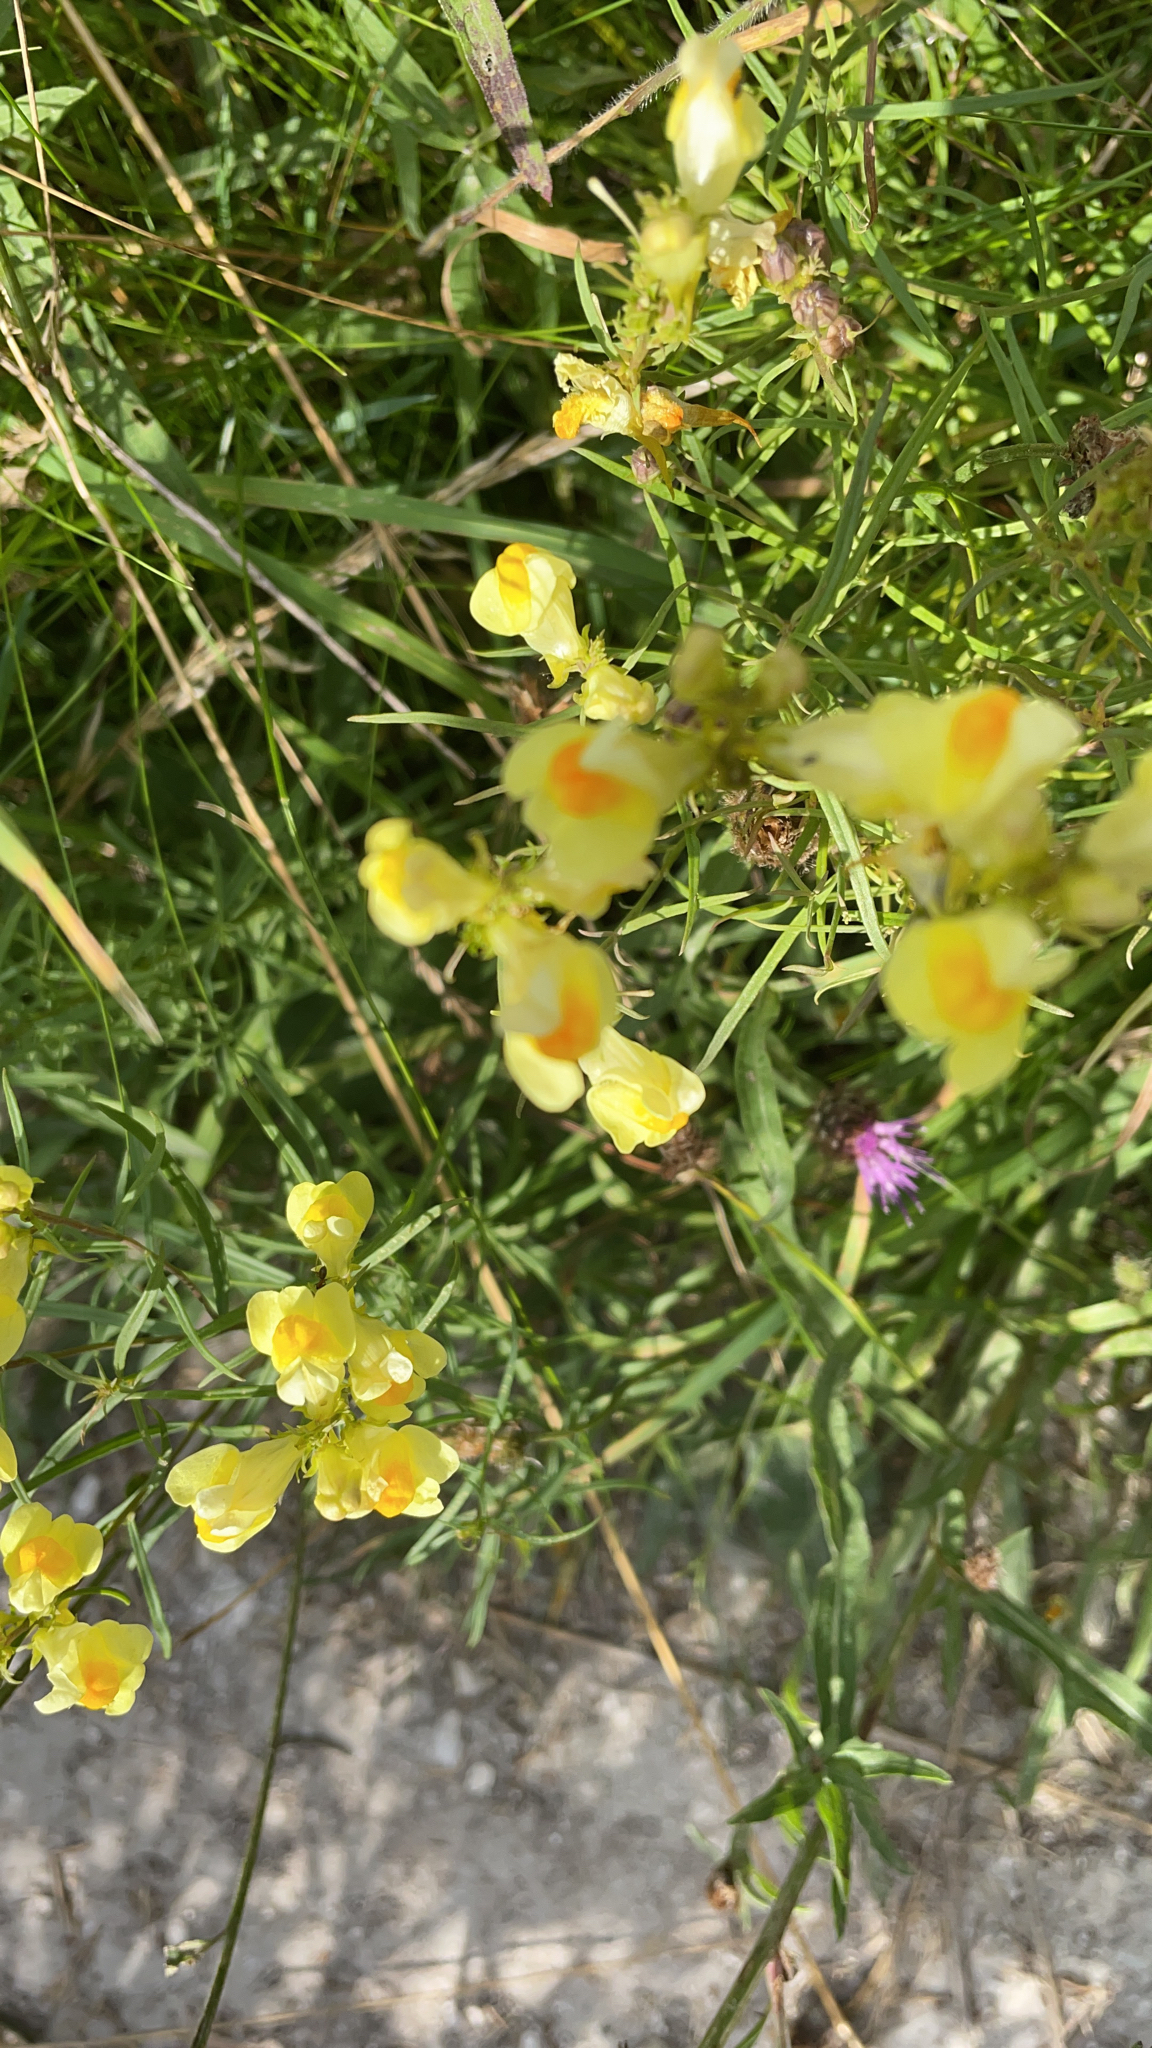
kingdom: Plantae
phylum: Tracheophyta
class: Magnoliopsida
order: Lamiales
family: Plantaginaceae
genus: Linaria
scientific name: Linaria vulgaris
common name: Butter and eggs
